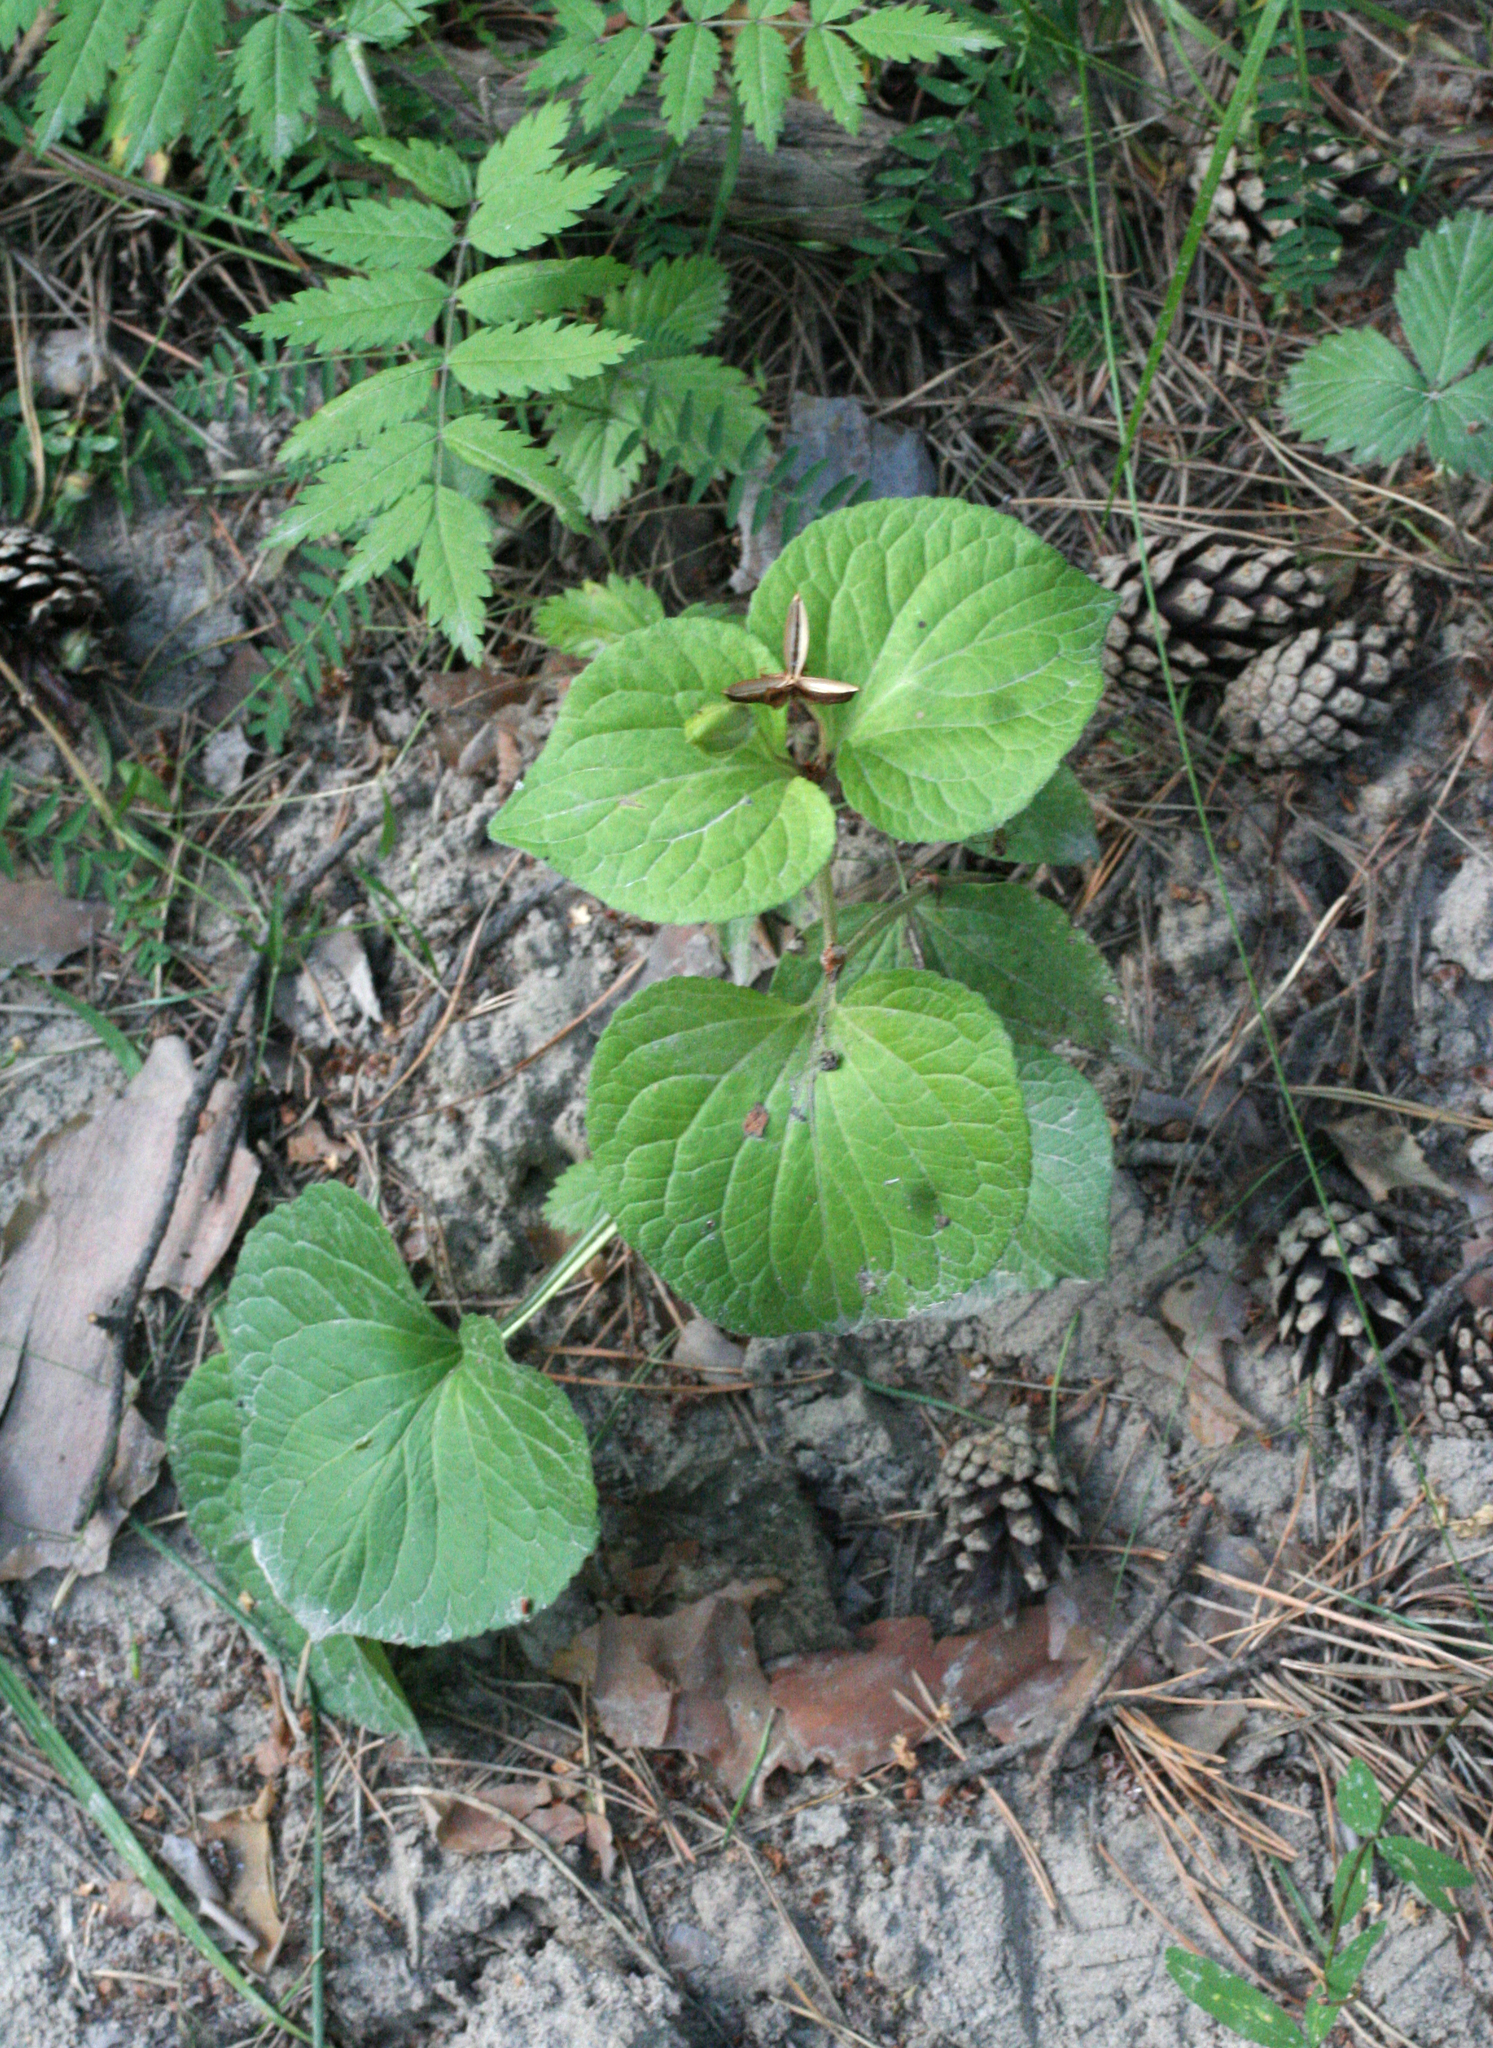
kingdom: Plantae
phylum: Tracheophyta
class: Magnoliopsida
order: Malpighiales
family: Violaceae
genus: Viola
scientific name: Viola mirabilis
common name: Wonder violet
